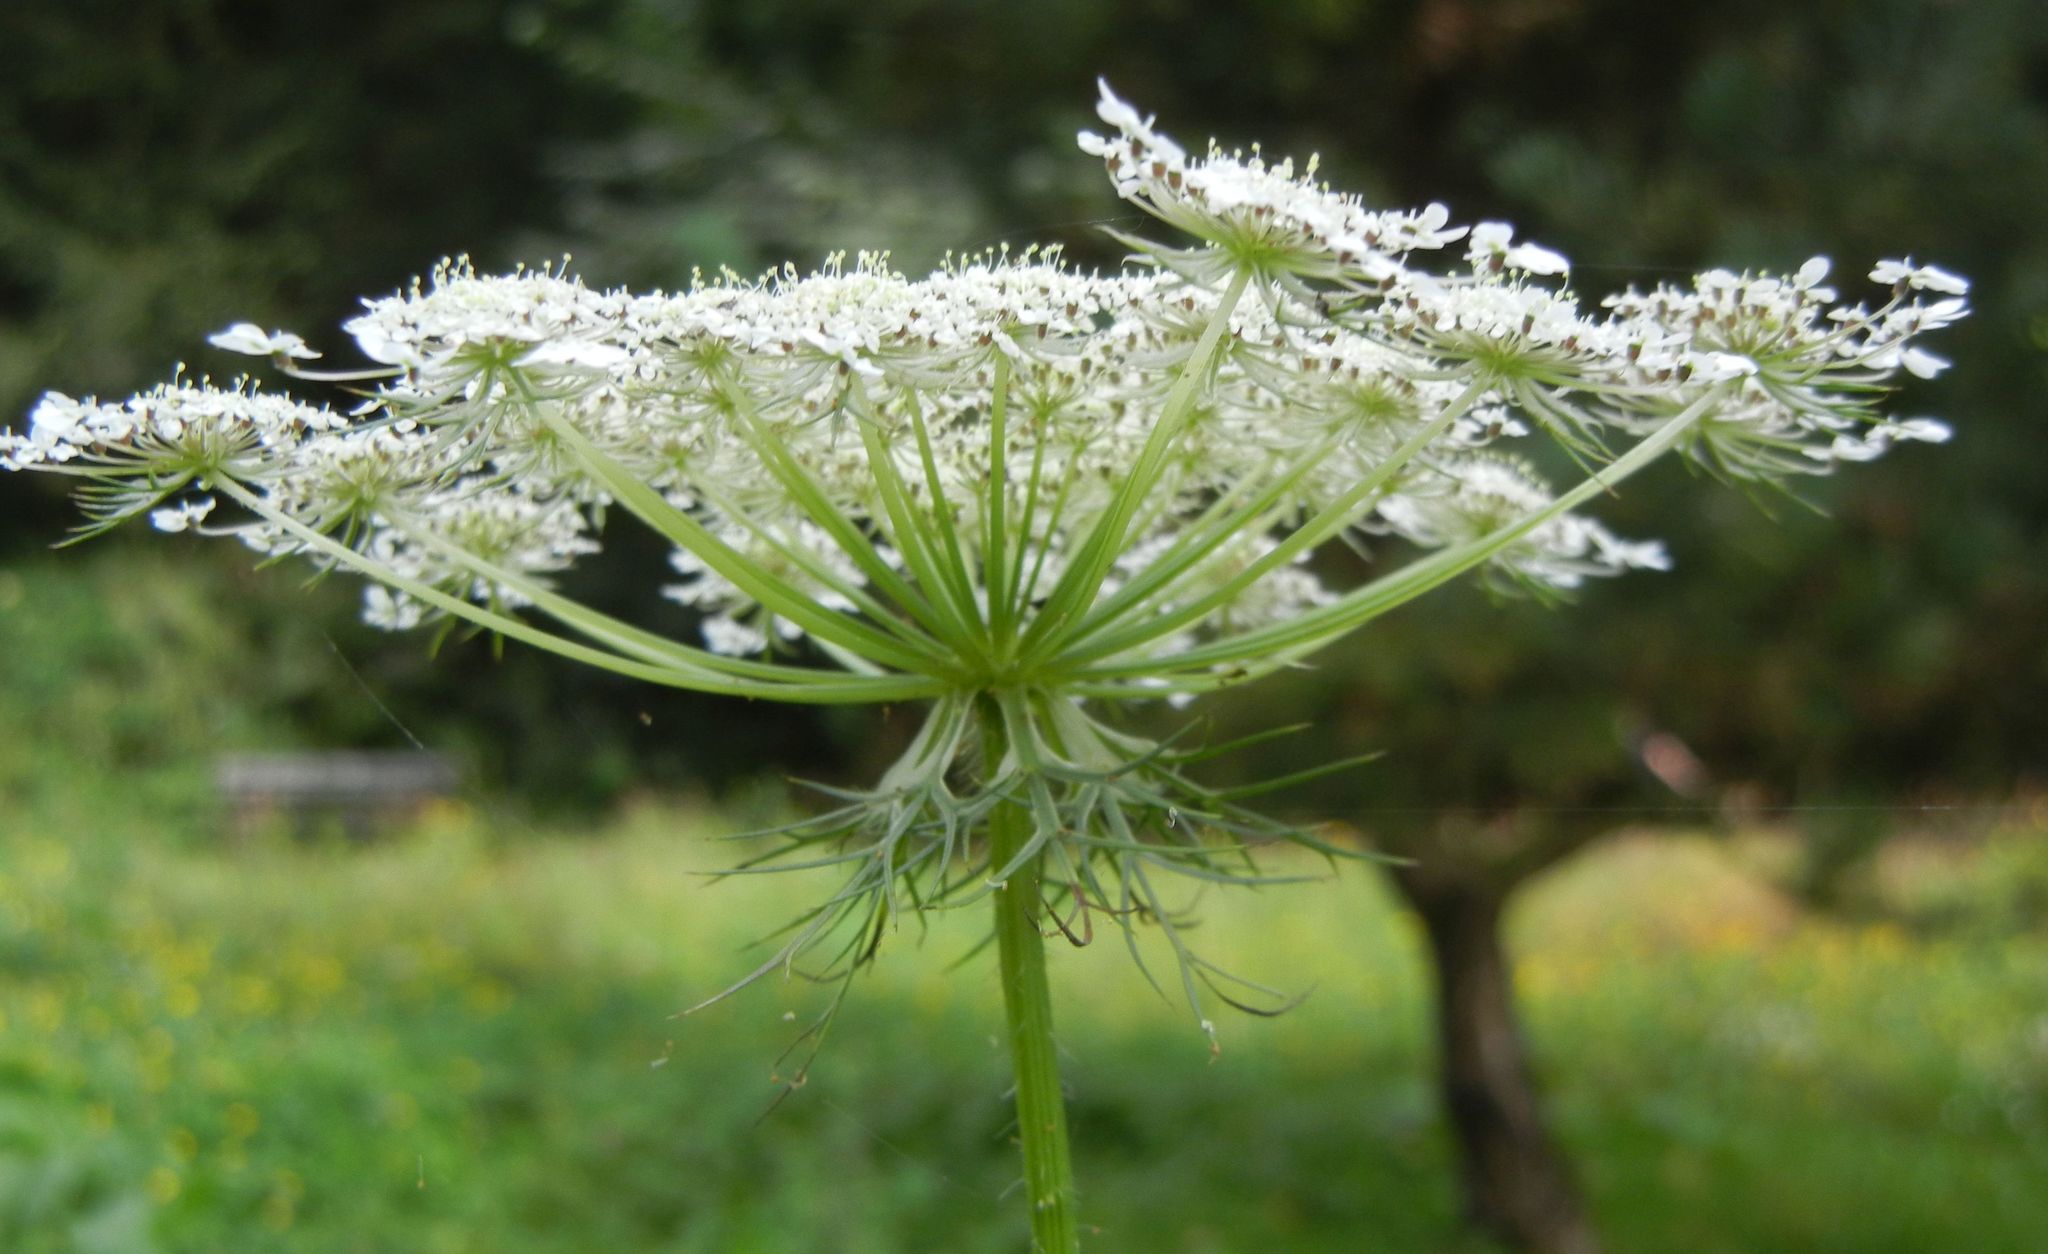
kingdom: Plantae
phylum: Tracheophyta
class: Magnoliopsida
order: Apiales
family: Apiaceae
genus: Daucus
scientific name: Daucus carota
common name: Wild carrot
